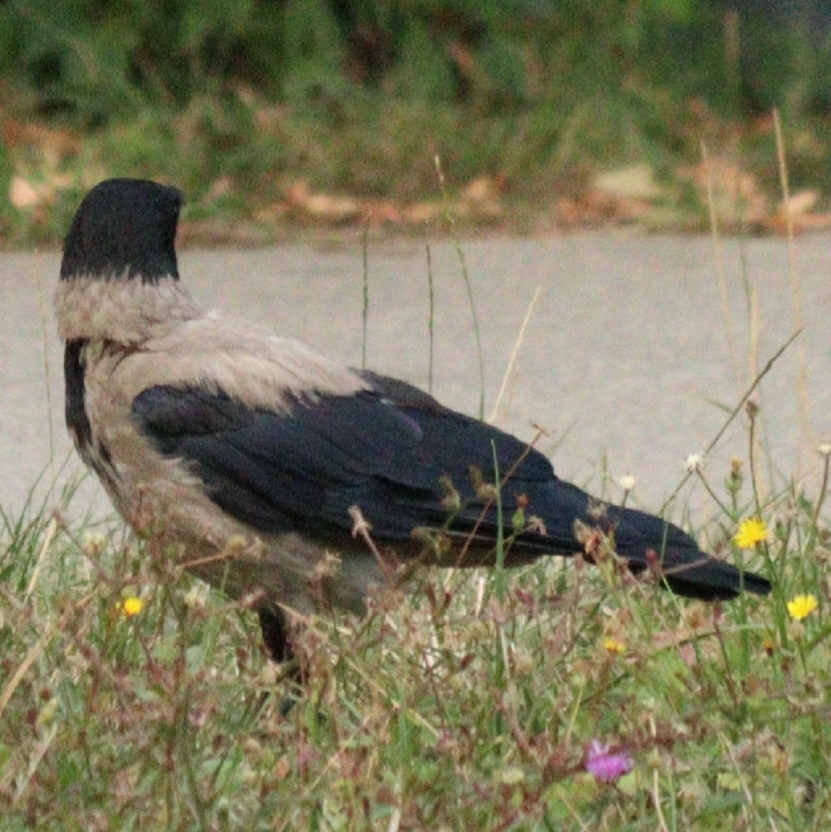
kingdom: Animalia
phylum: Chordata
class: Aves
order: Passeriformes
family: Corvidae
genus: Corvus
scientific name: Corvus cornix
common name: Hooded crow
